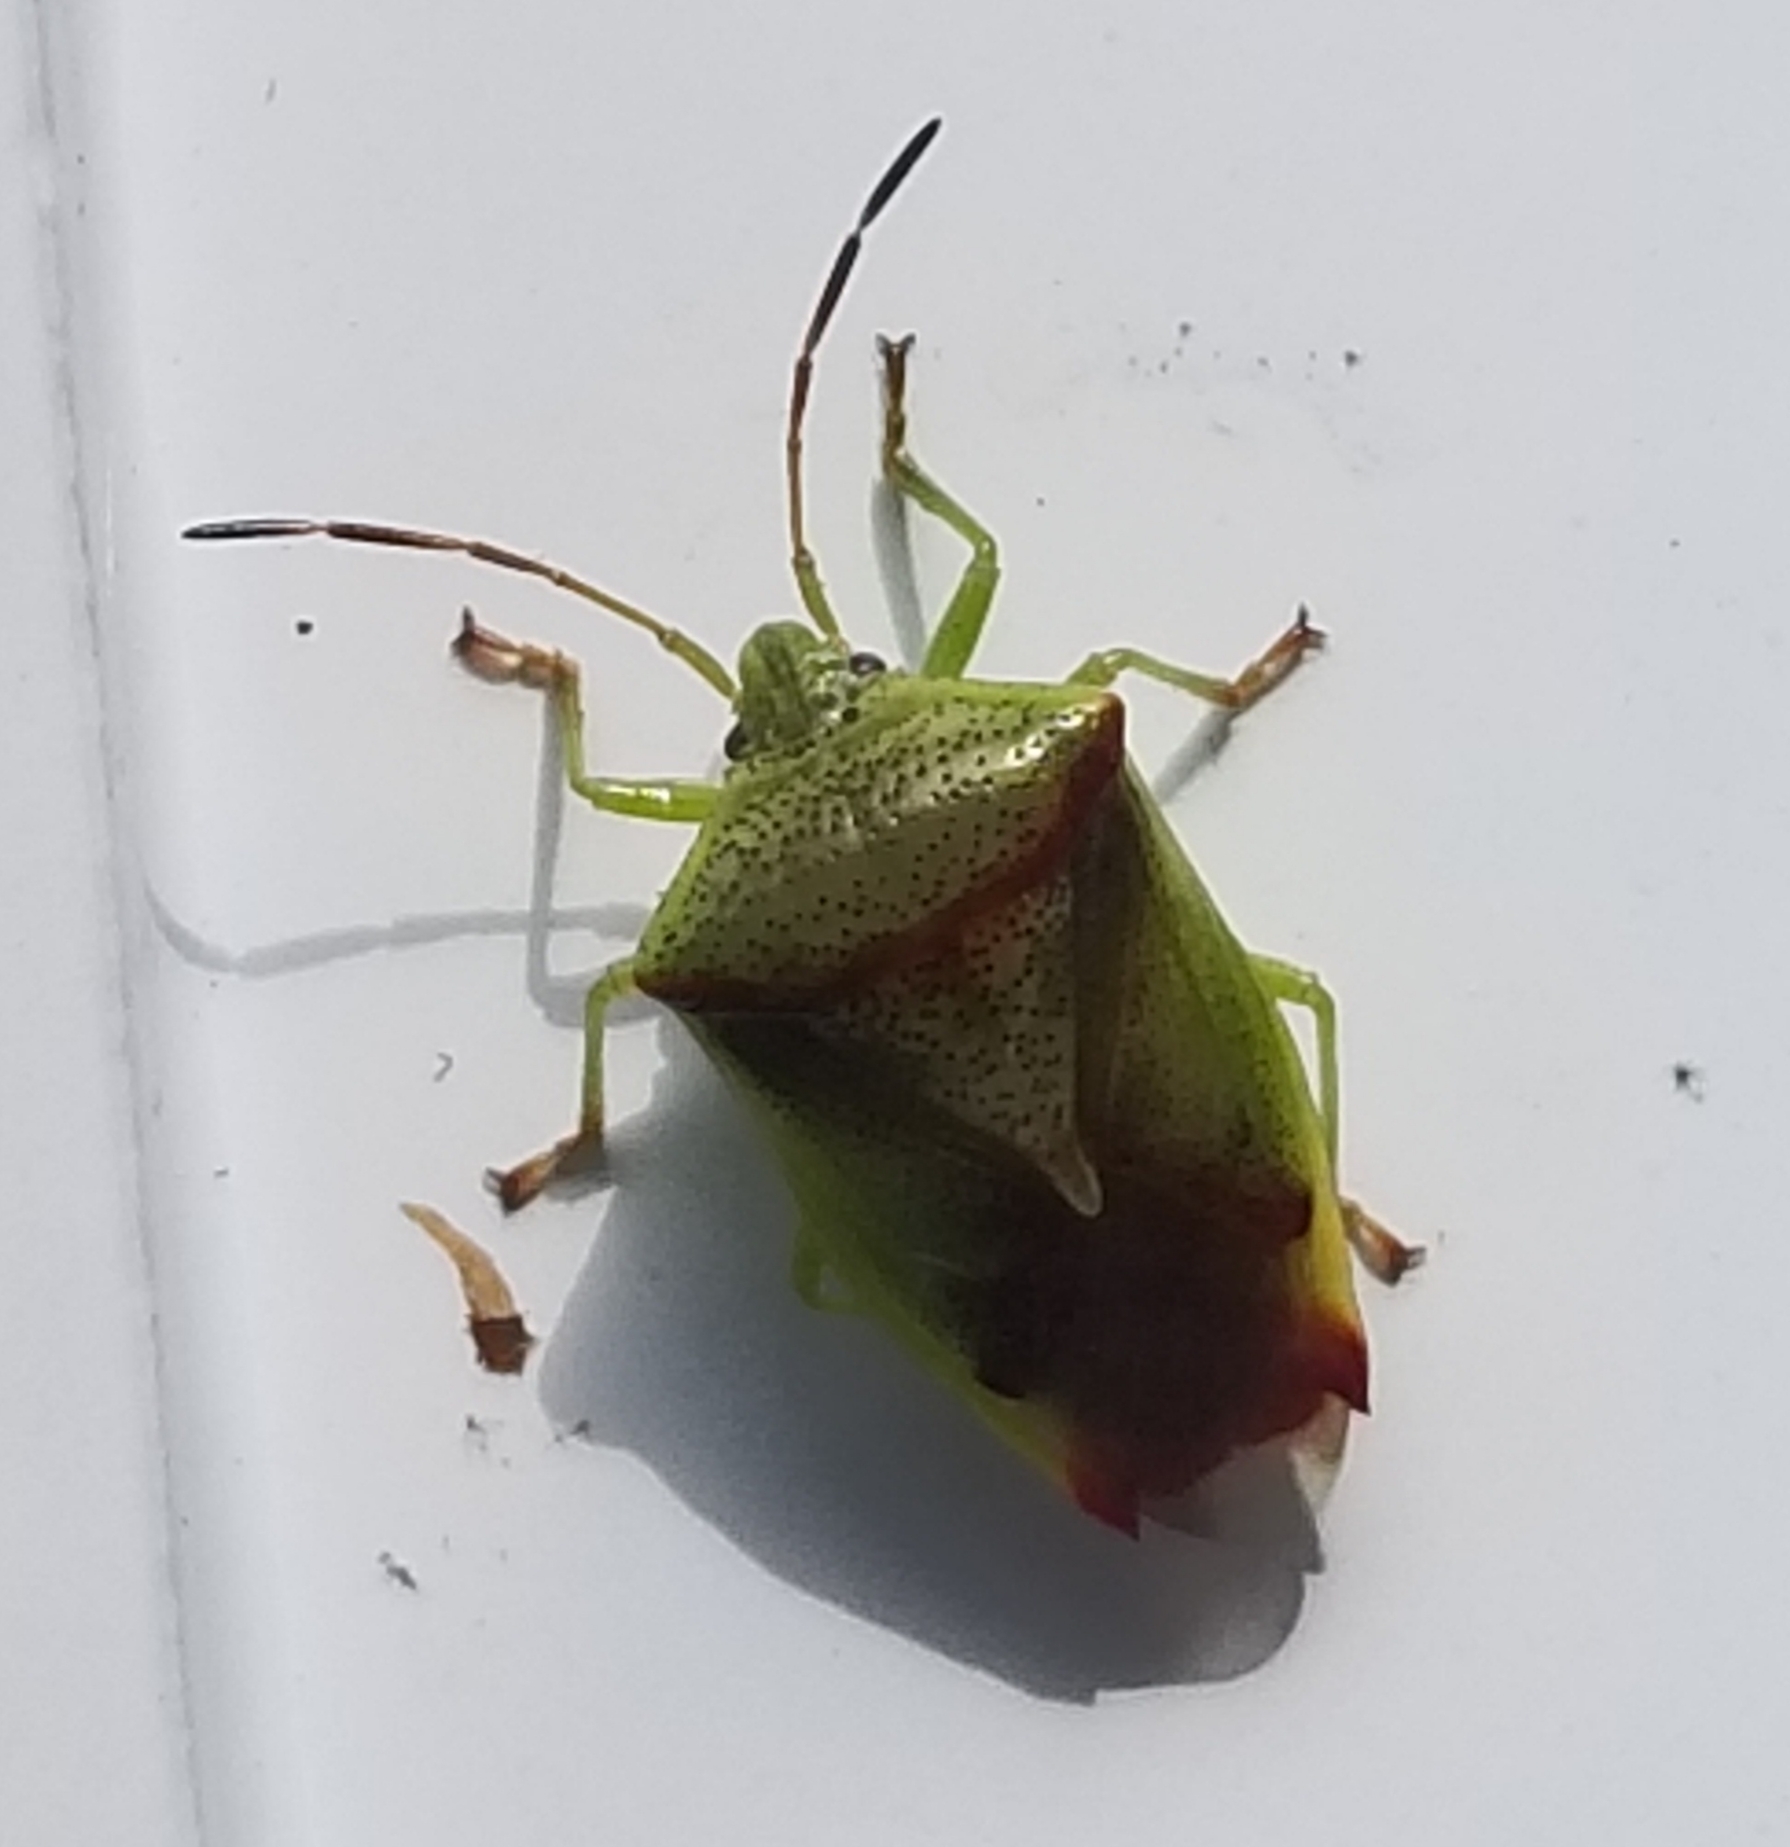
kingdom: Animalia
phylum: Arthropoda
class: Insecta
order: Hemiptera
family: Acanthosomatidae
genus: Elasmostethus
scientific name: Elasmostethus cruciatus
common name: Red-cross shield bug
